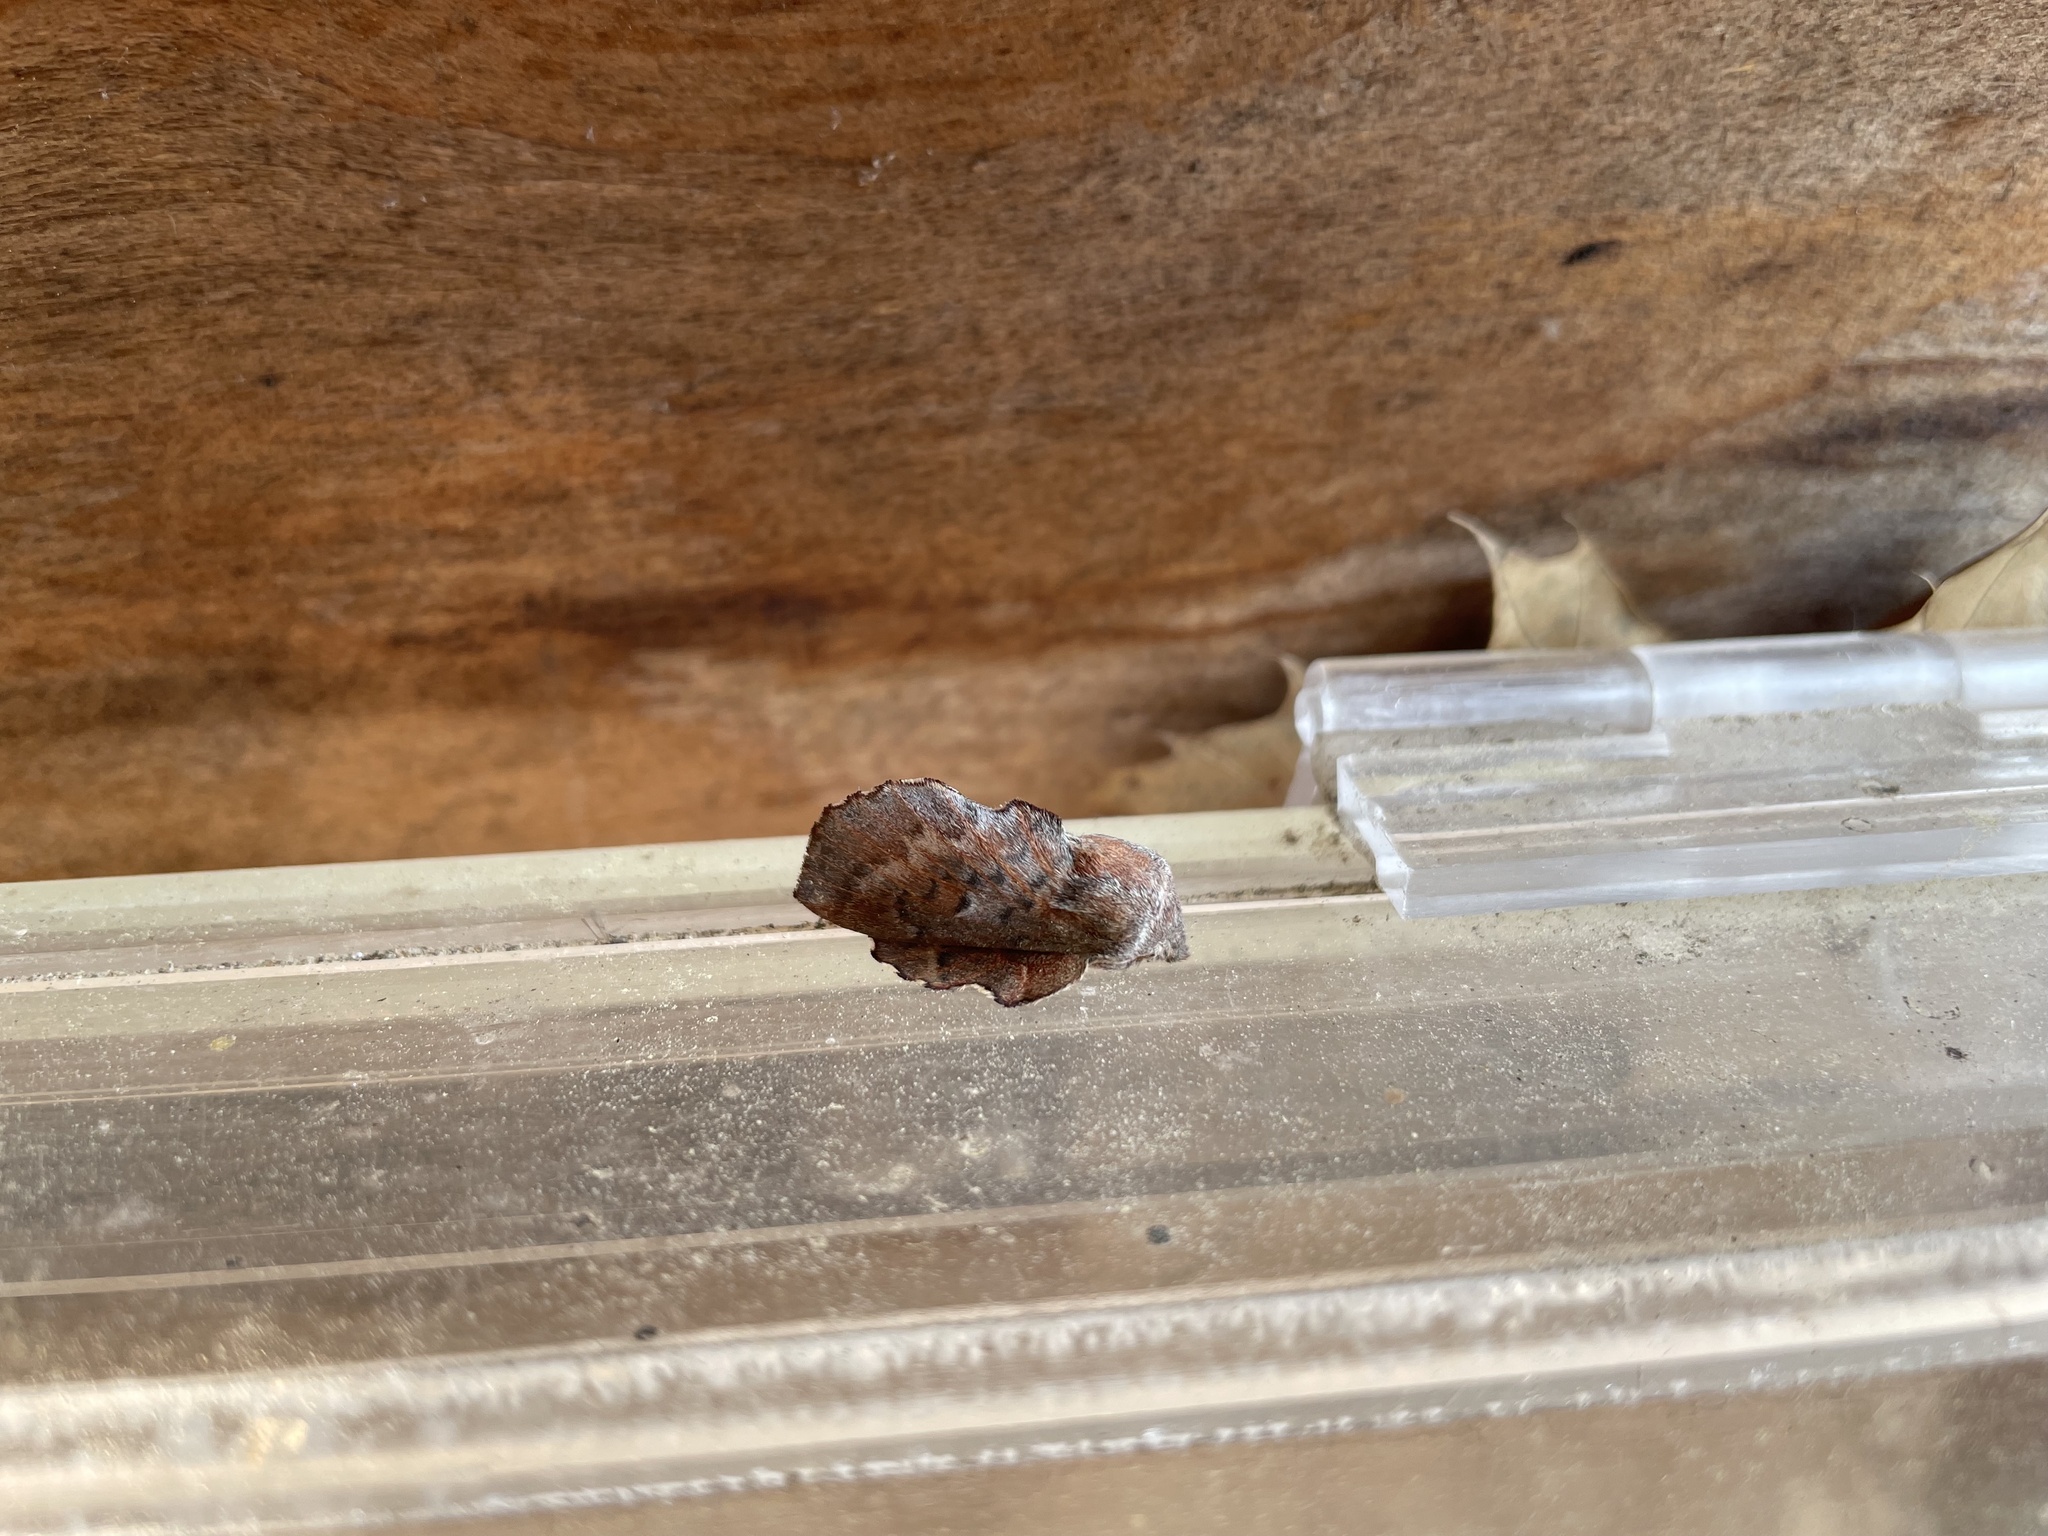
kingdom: Animalia
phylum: Arthropoda
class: Insecta
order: Lepidoptera
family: Lasiocampidae
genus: Phyllodesma
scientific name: Phyllodesma americana
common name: American lappet moth
